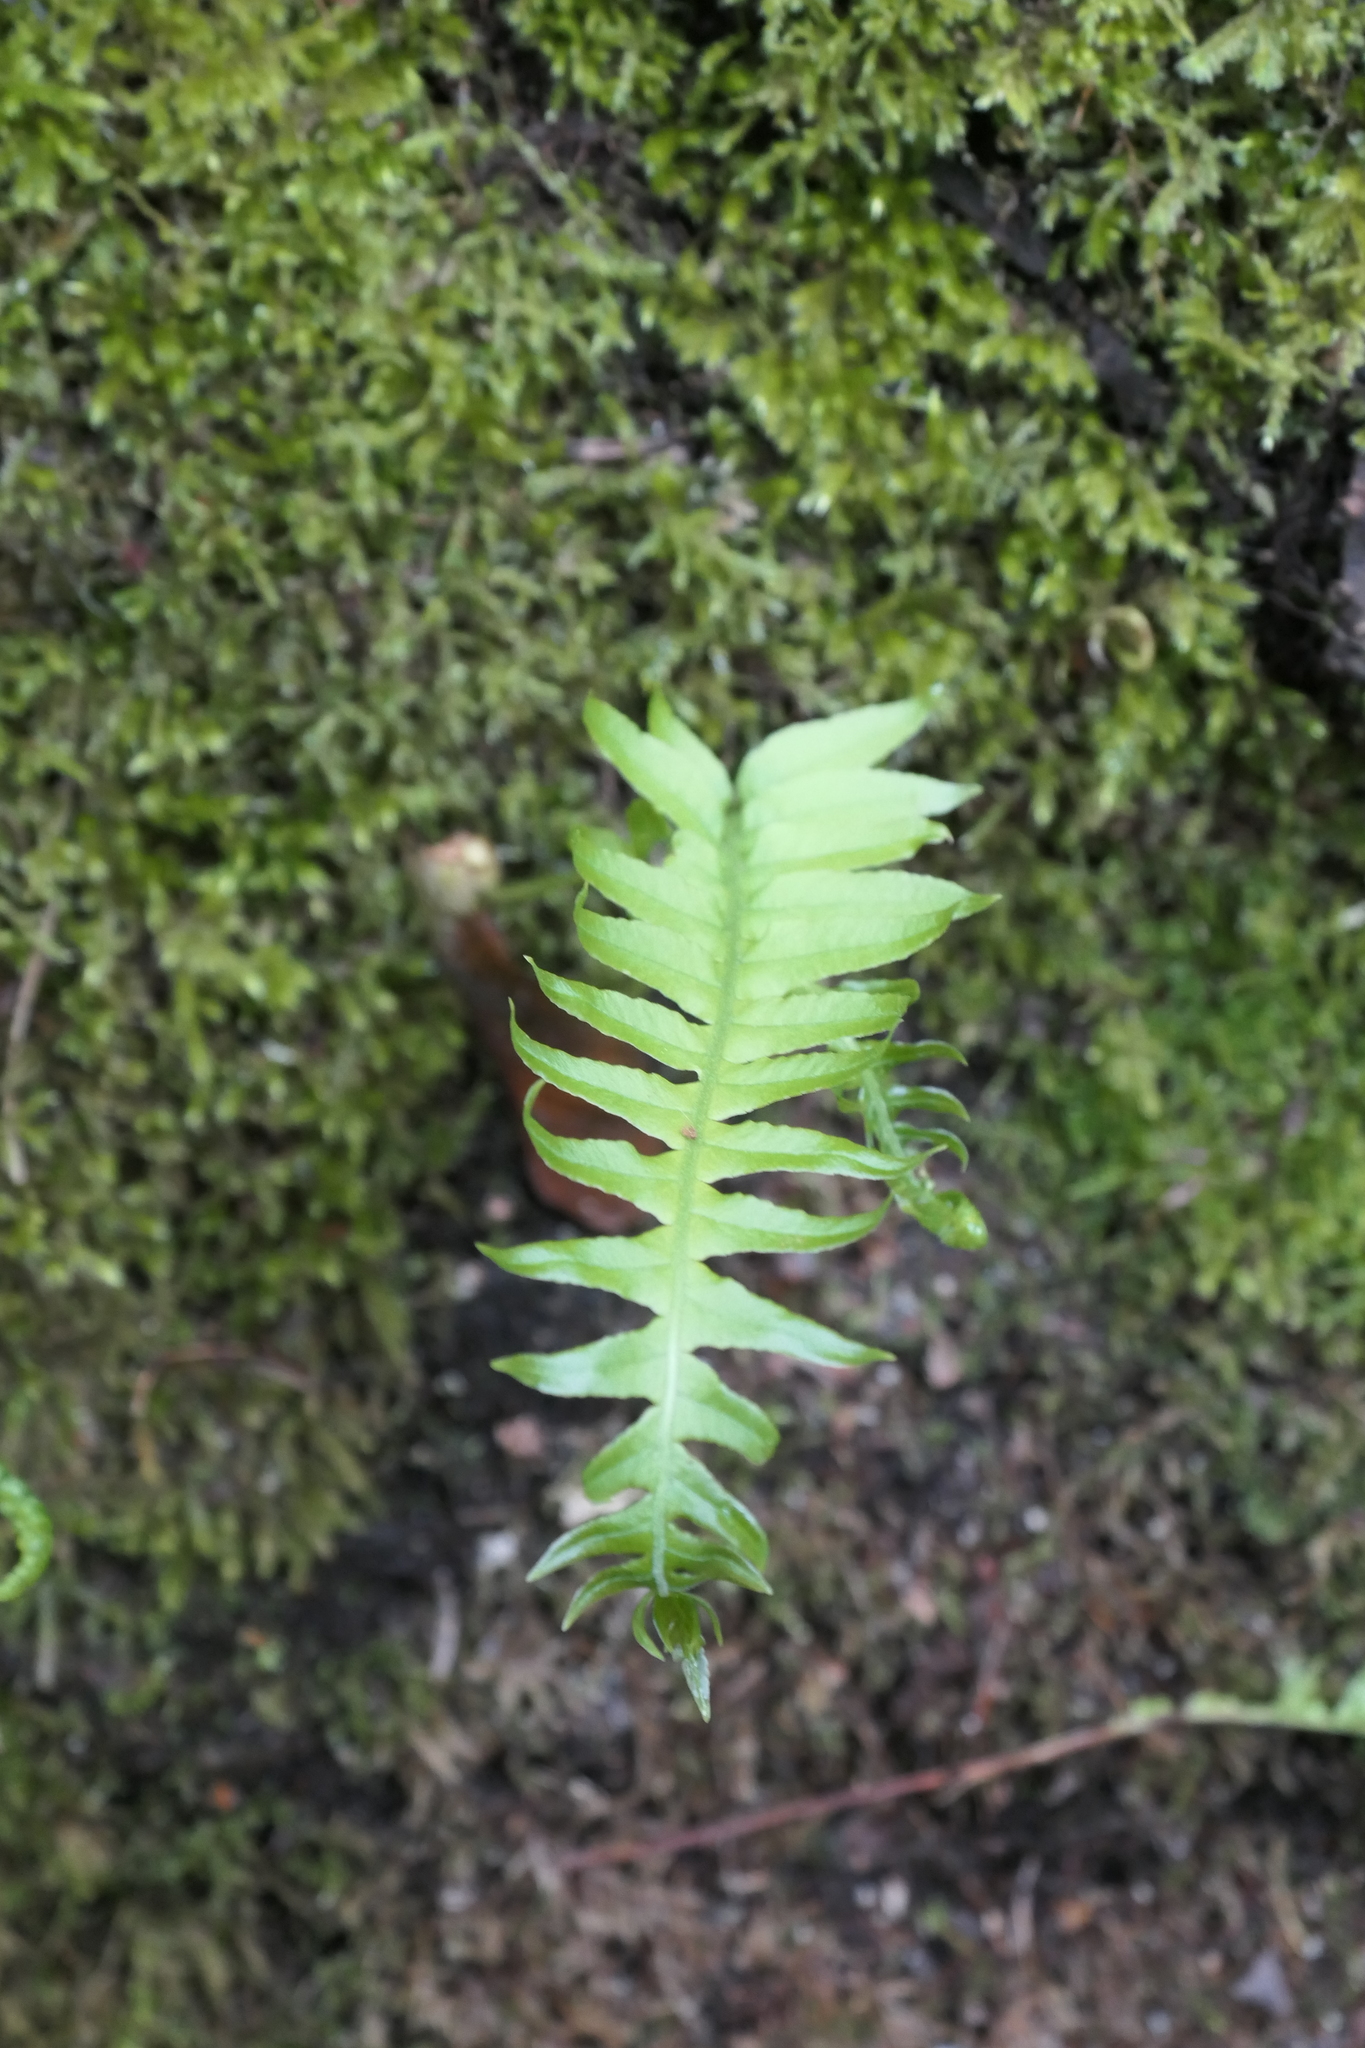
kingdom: Plantae
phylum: Tracheophyta
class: Polypodiopsida
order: Polypodiales
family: Polypodiaceae
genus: Polypodium
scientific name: Polypodium glycyrrhiza
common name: Licorice fern
